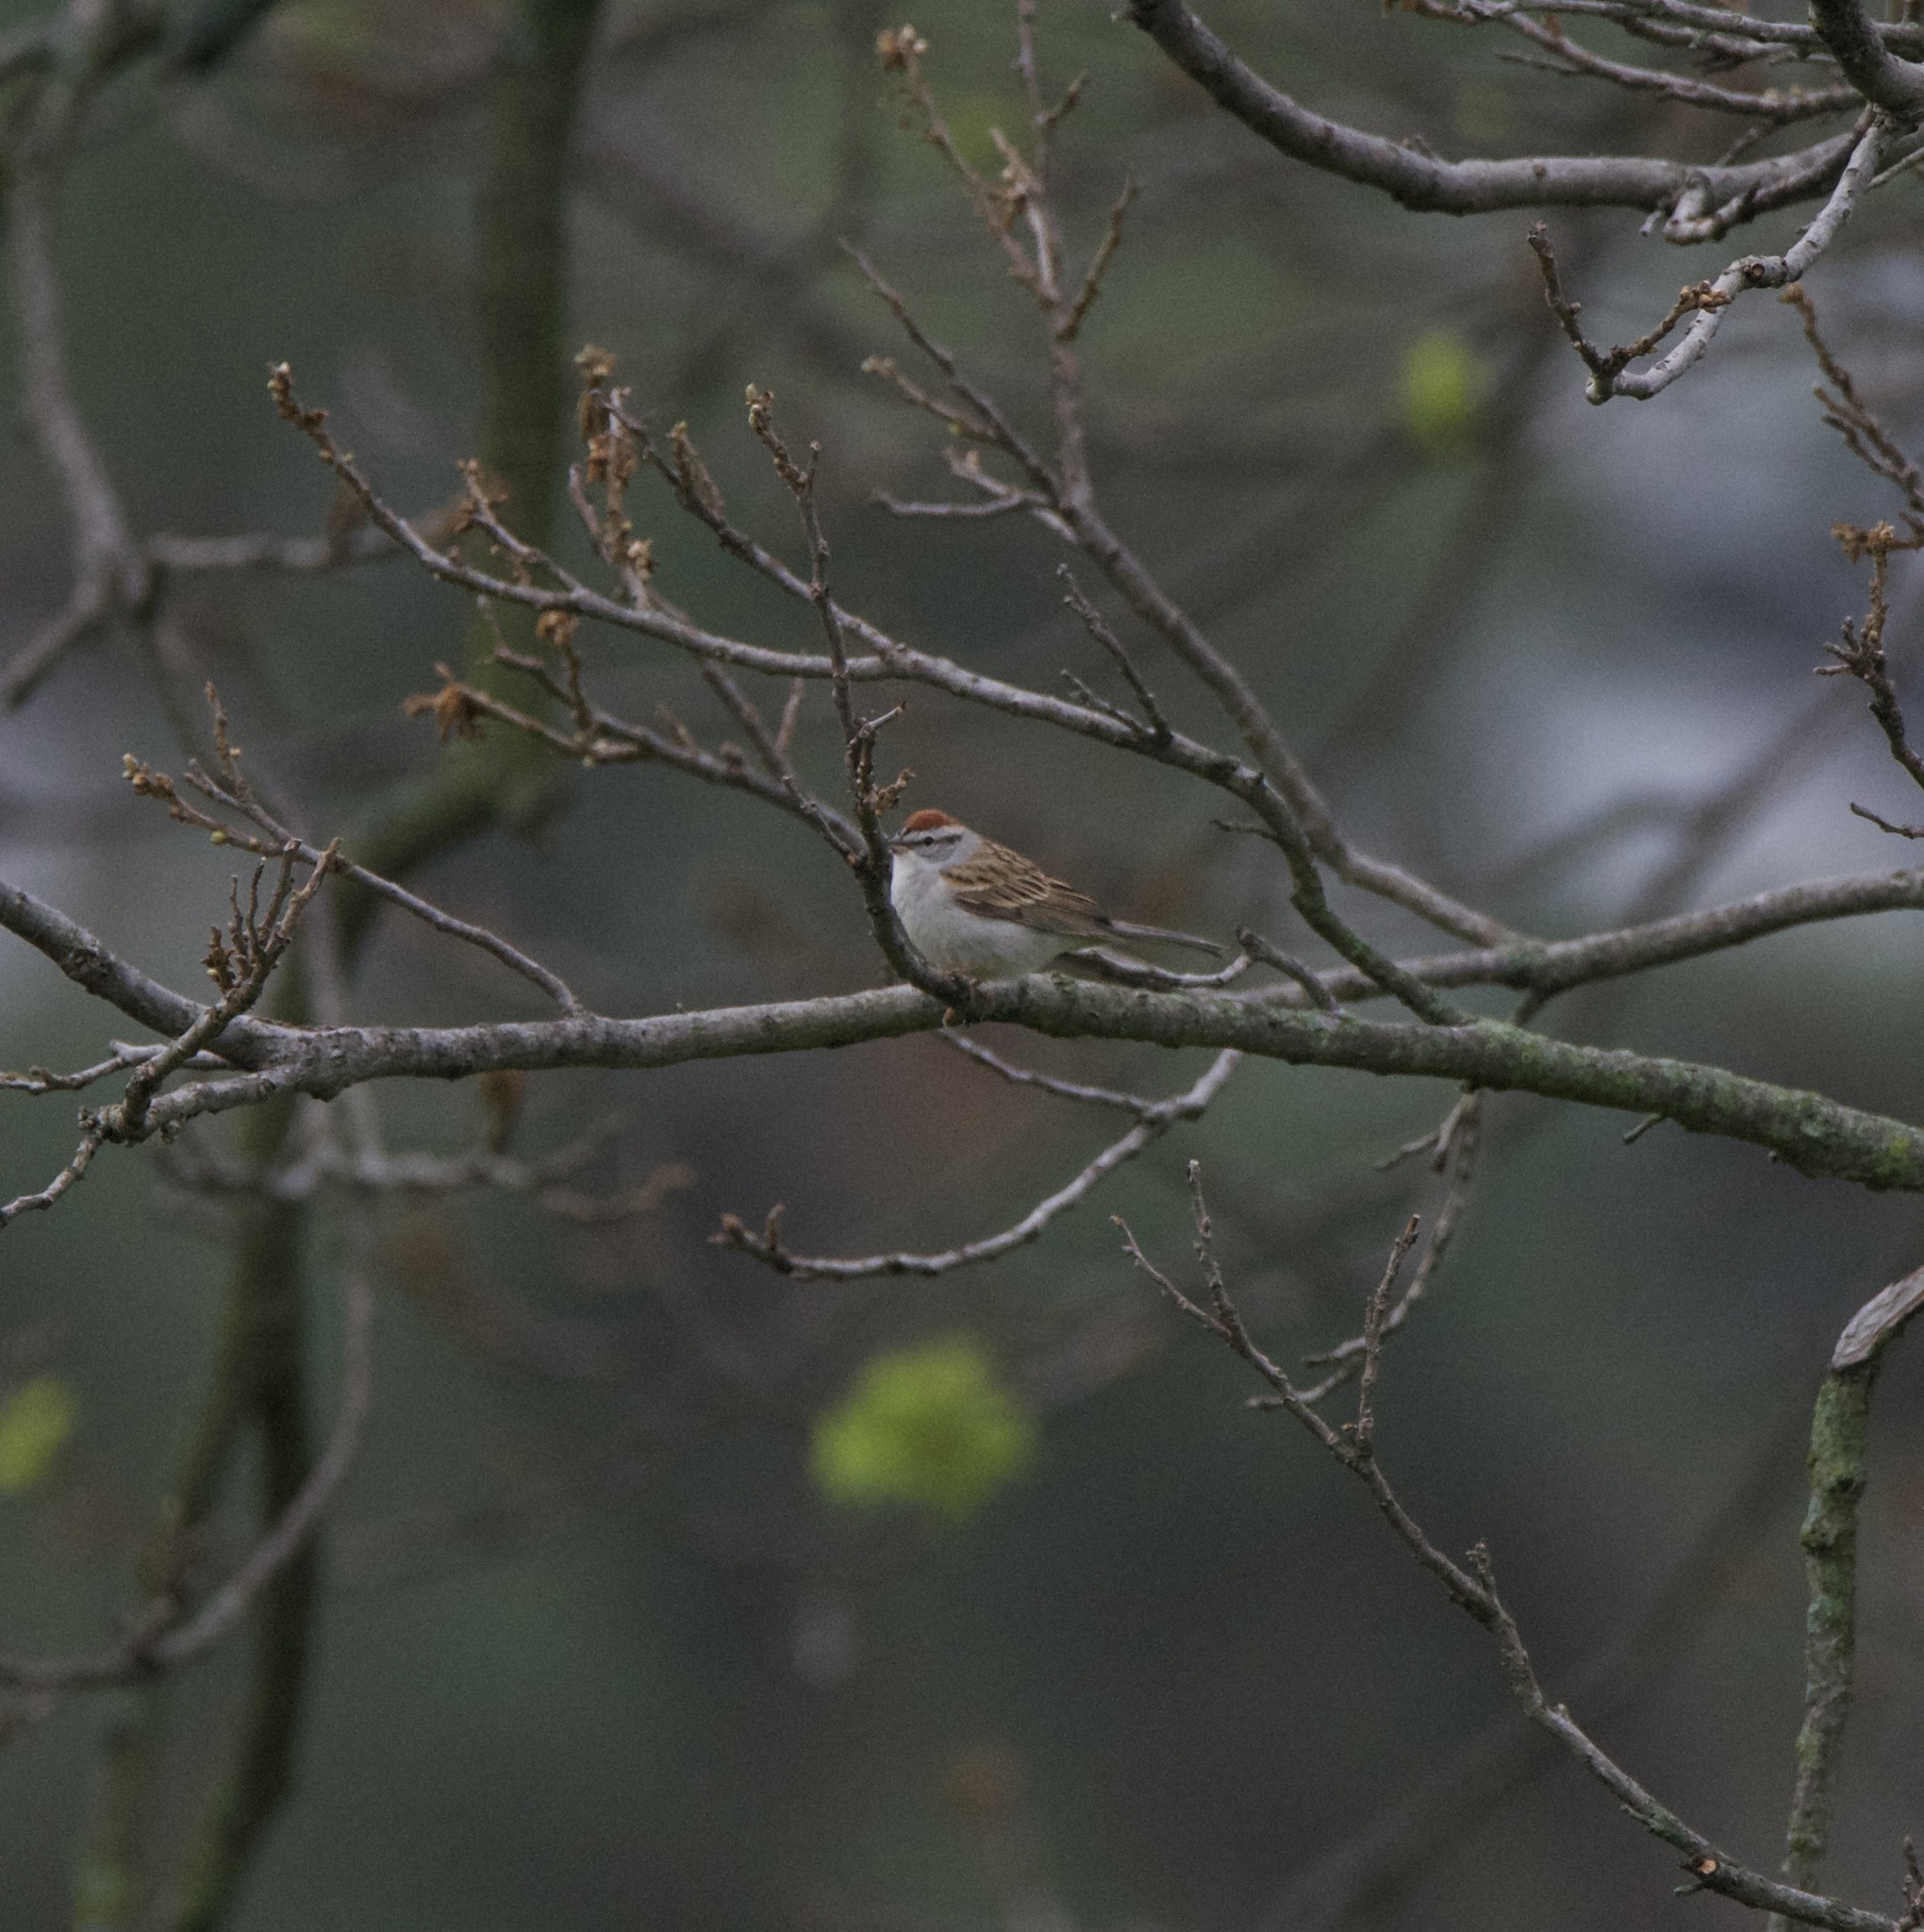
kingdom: Animalia
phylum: Chordata
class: Aves
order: Passeriformes
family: Passerellidae
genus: Spizella
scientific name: Spizella passerina
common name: Chipping sparrow
